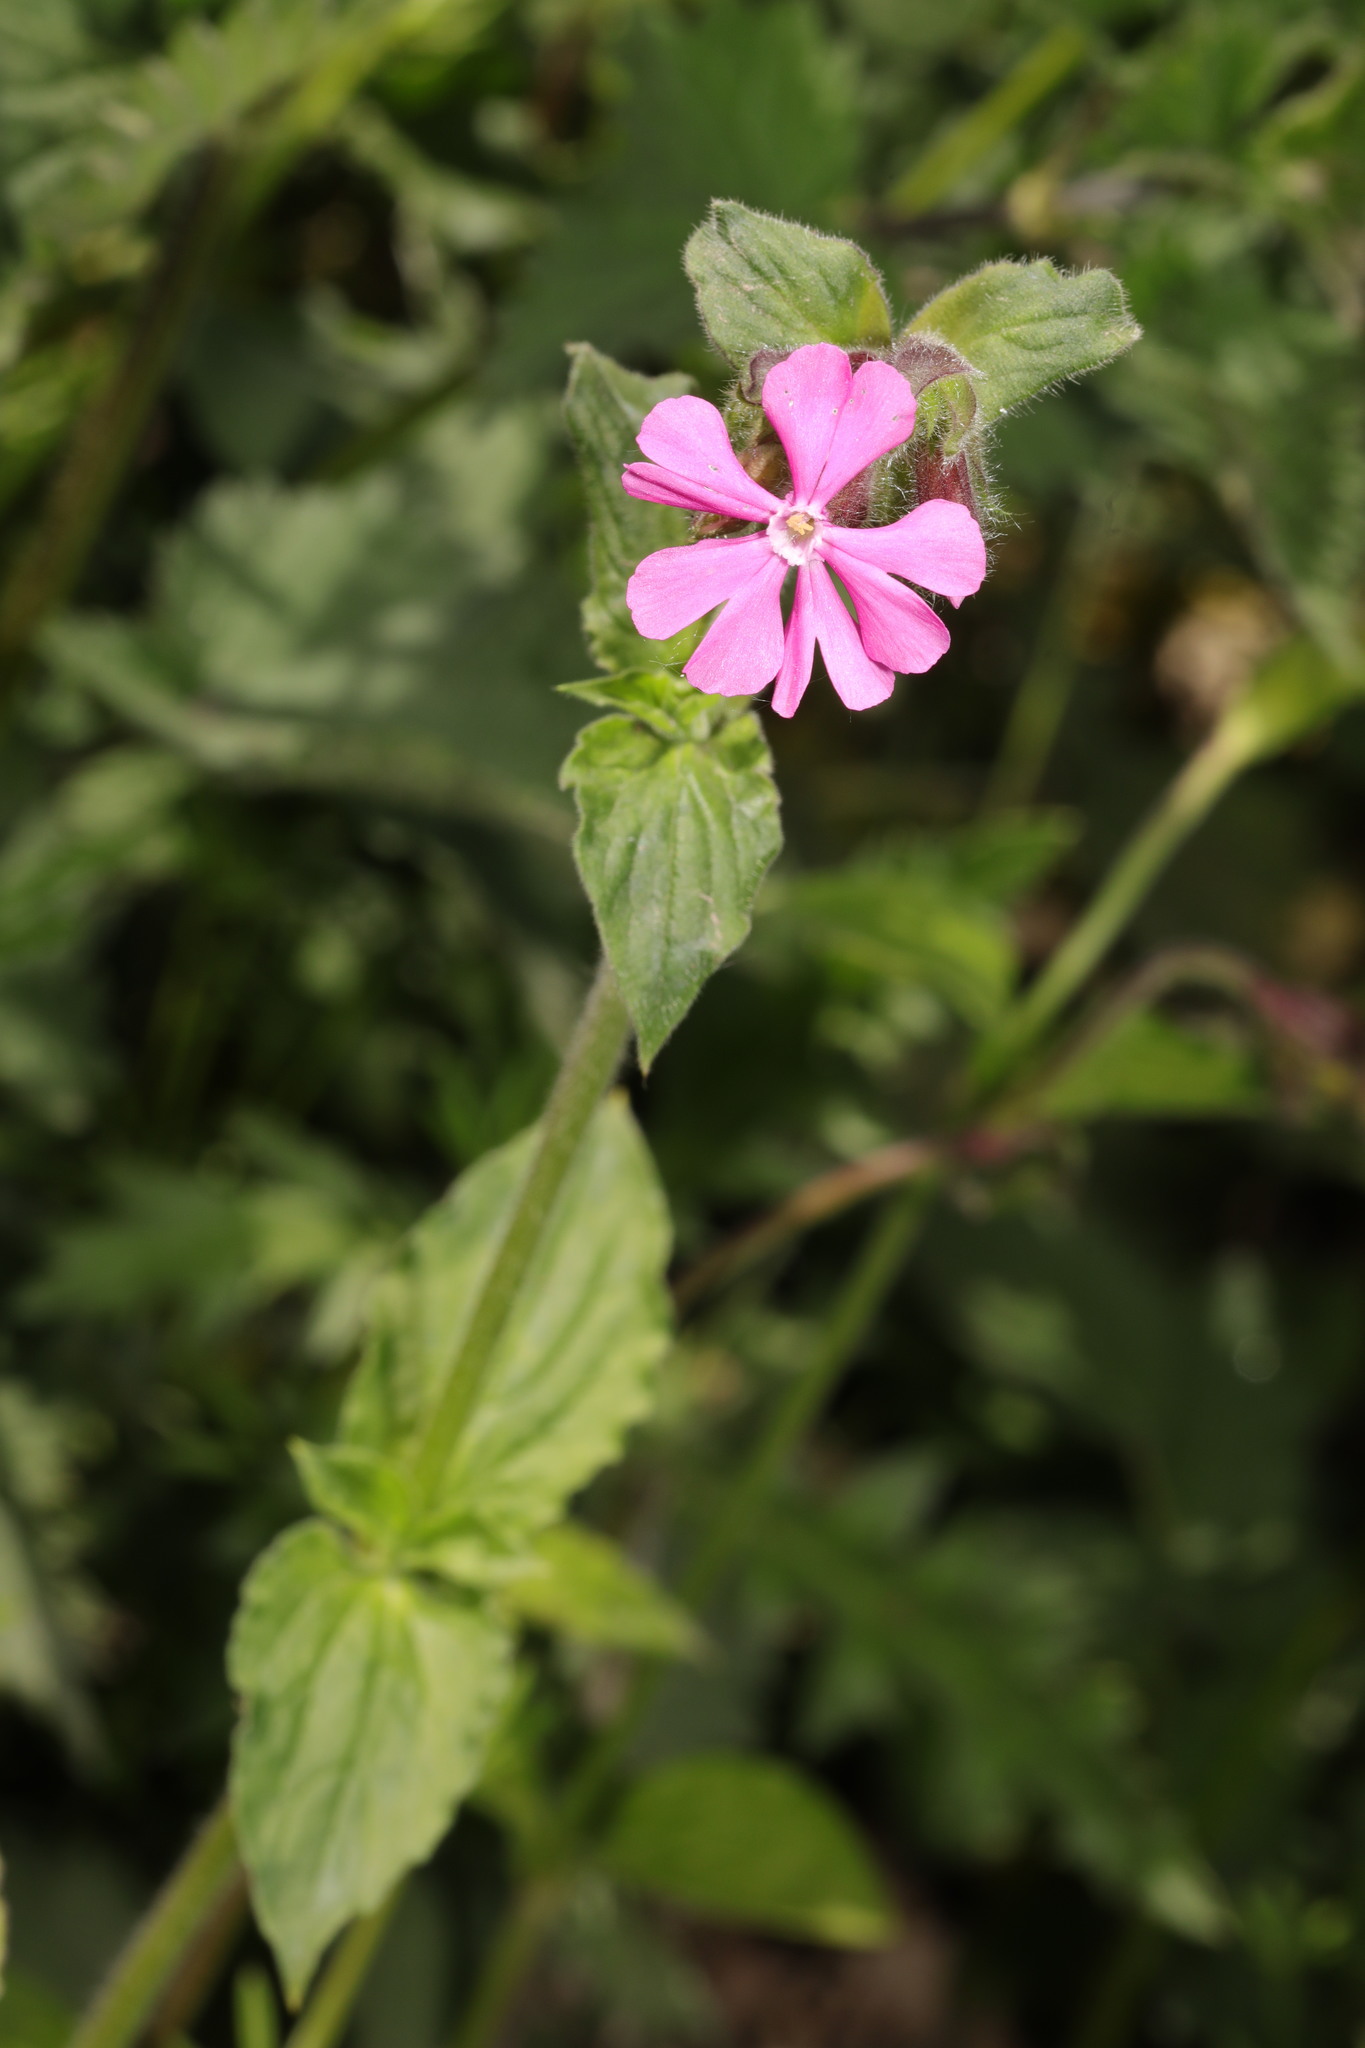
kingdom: Plantae
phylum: Tracheophyta
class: Magnoliopsida
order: Caryophyllales
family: Caryophyllaceae
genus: Silene
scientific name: Silene dioica
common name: Red campion
